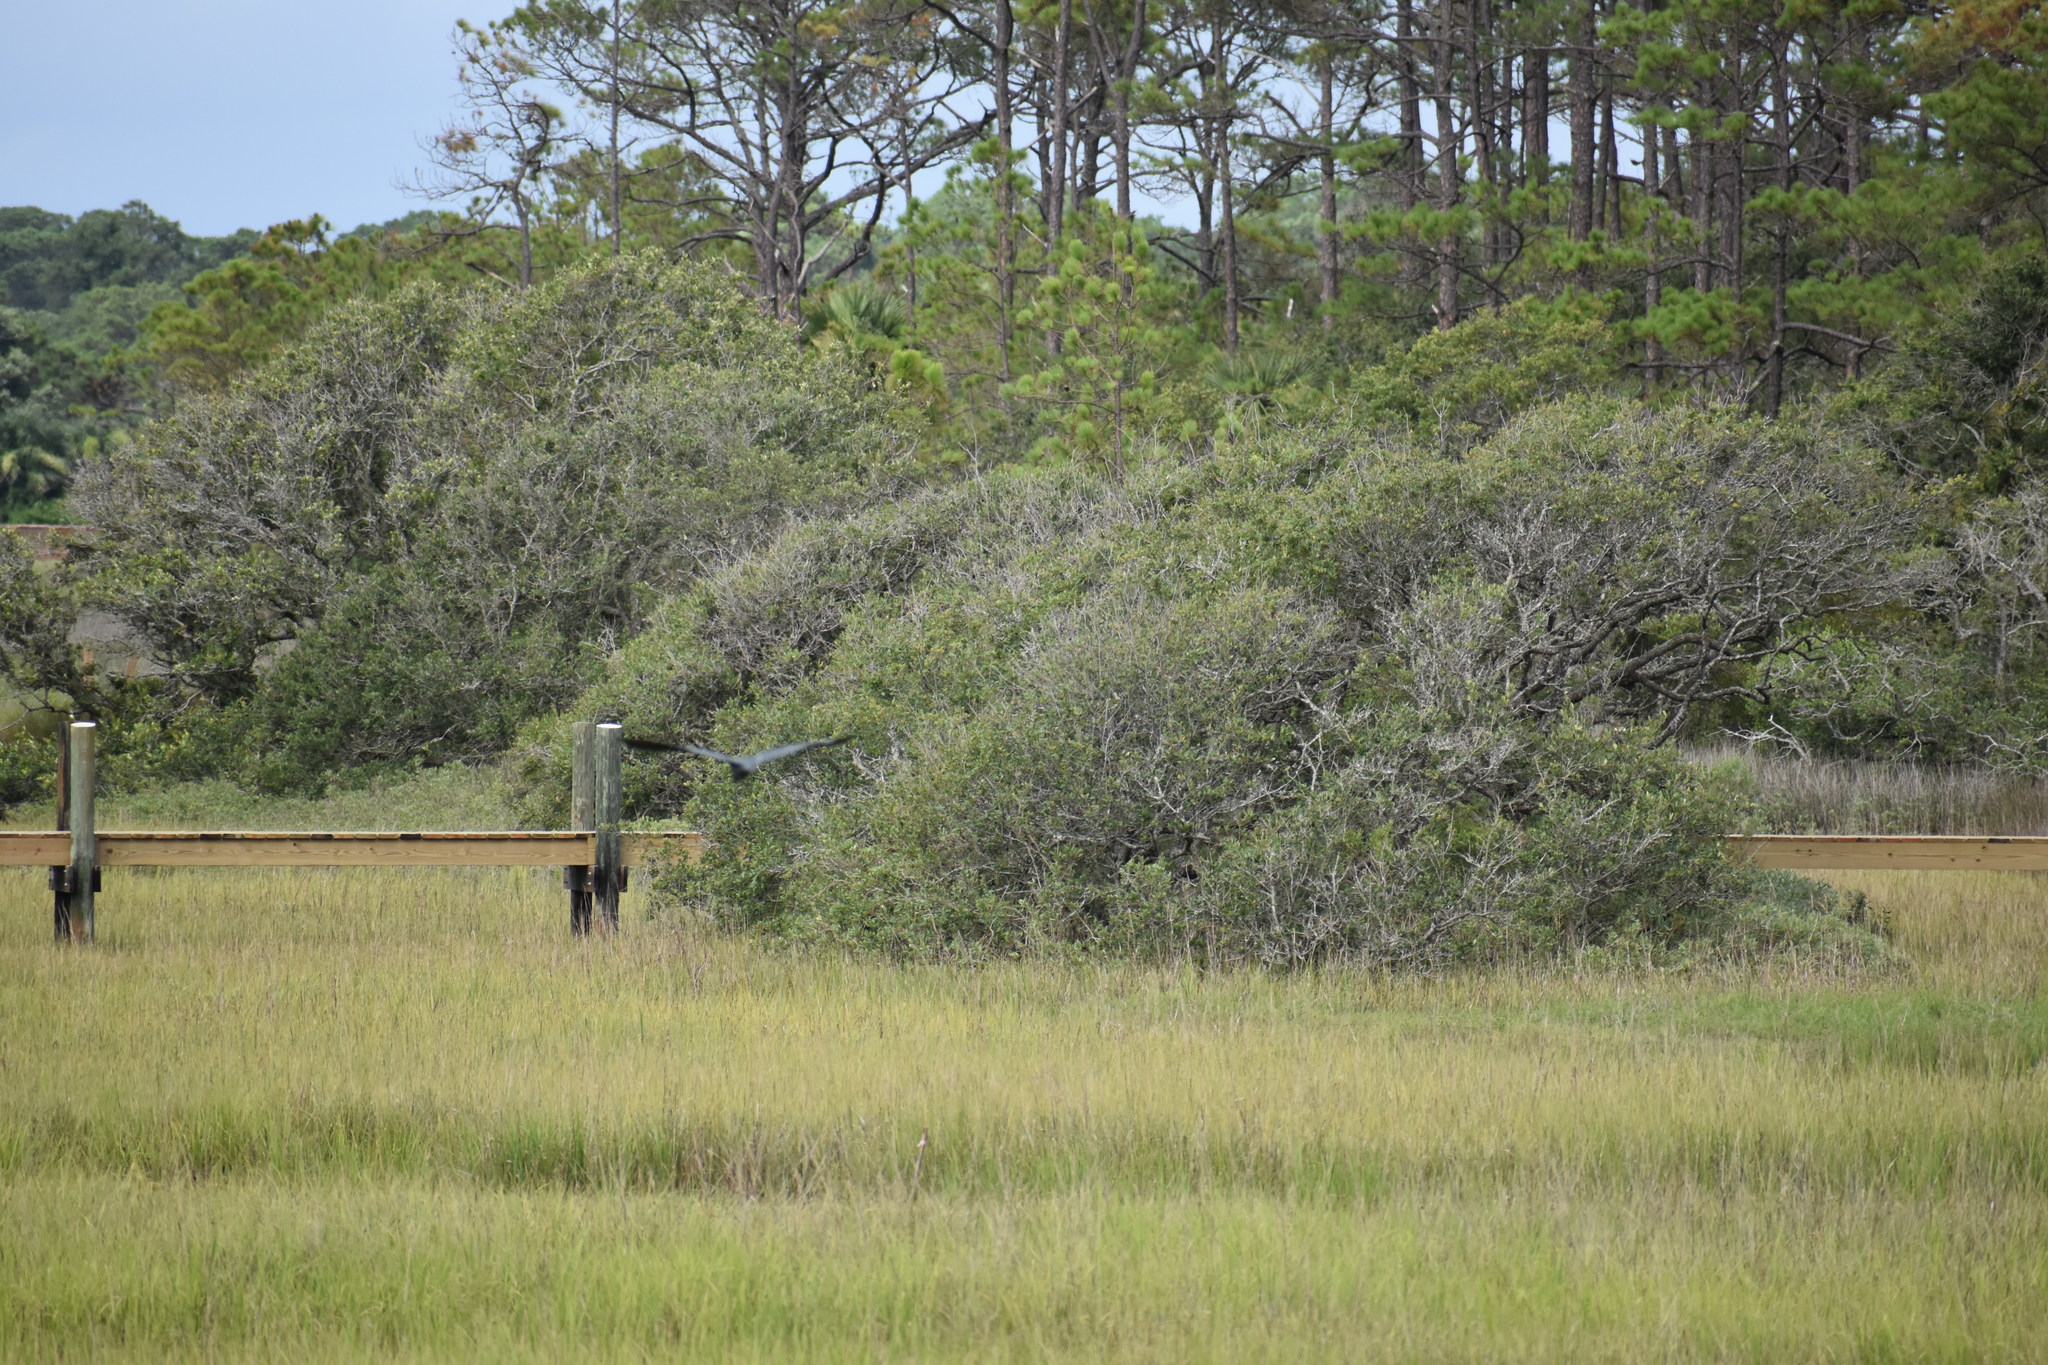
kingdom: Animalia
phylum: Chordata
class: Aves
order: Pelecaniformes
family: Ardeidae
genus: Egretta
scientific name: Egretta caerulea
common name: Little blue heron
